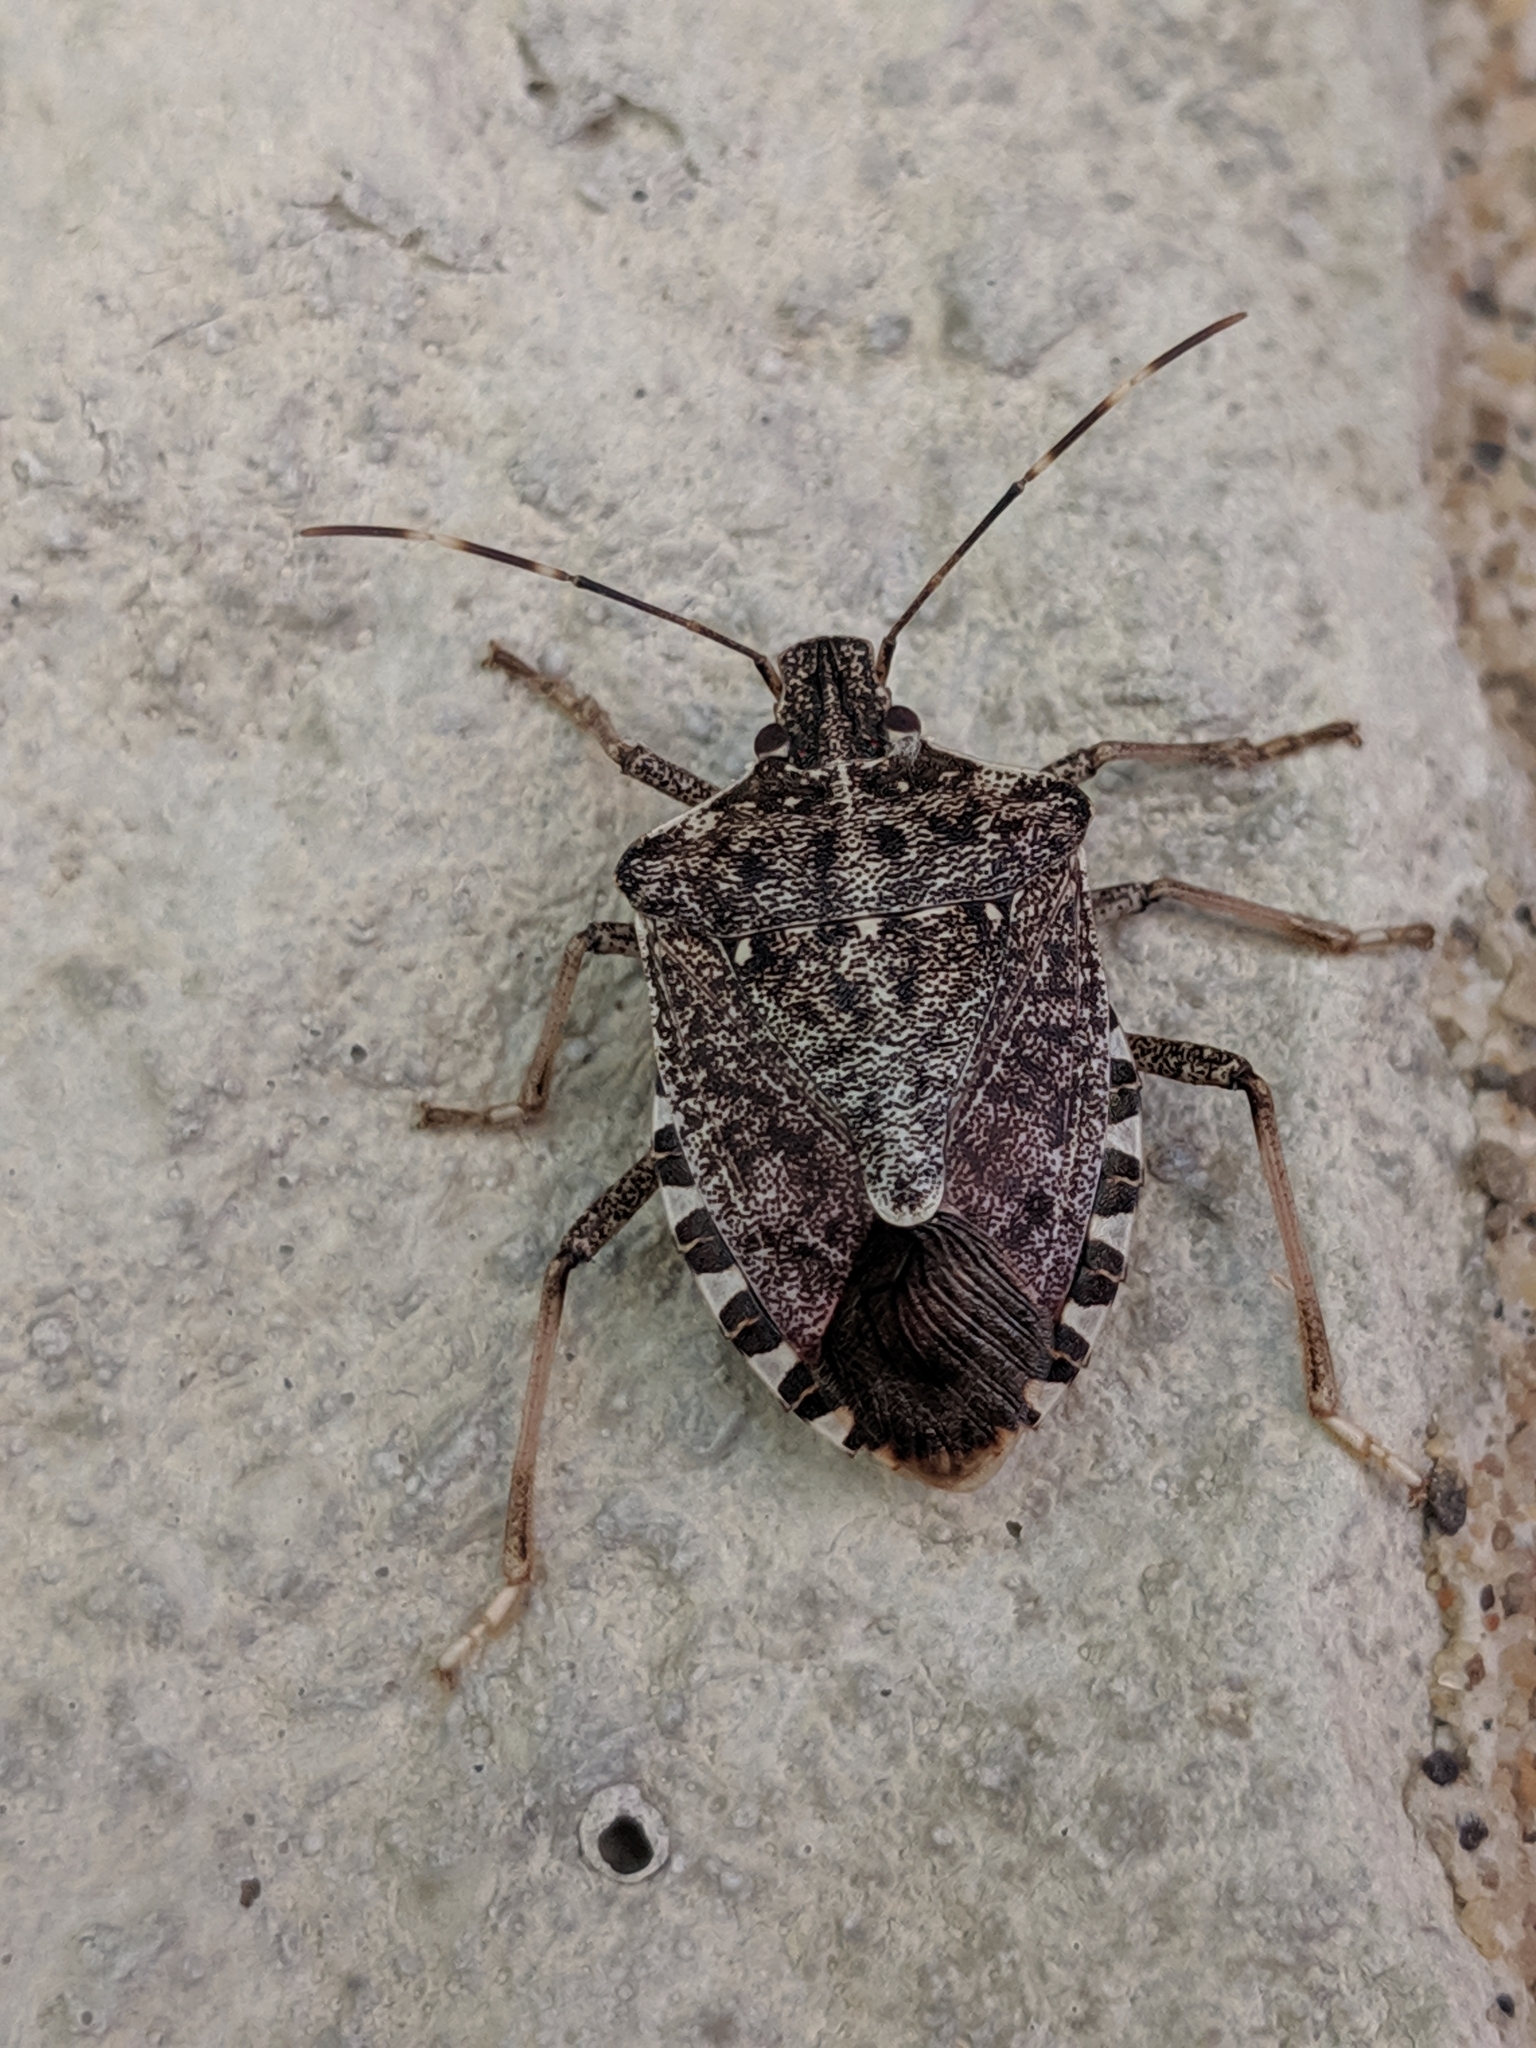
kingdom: Animalia
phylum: Arthropoda
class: Insecta
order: Hemiptera
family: Pentatomidae
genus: Halyomorpha
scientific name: Halyomorpha halys
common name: Brown marmorated stink bug
